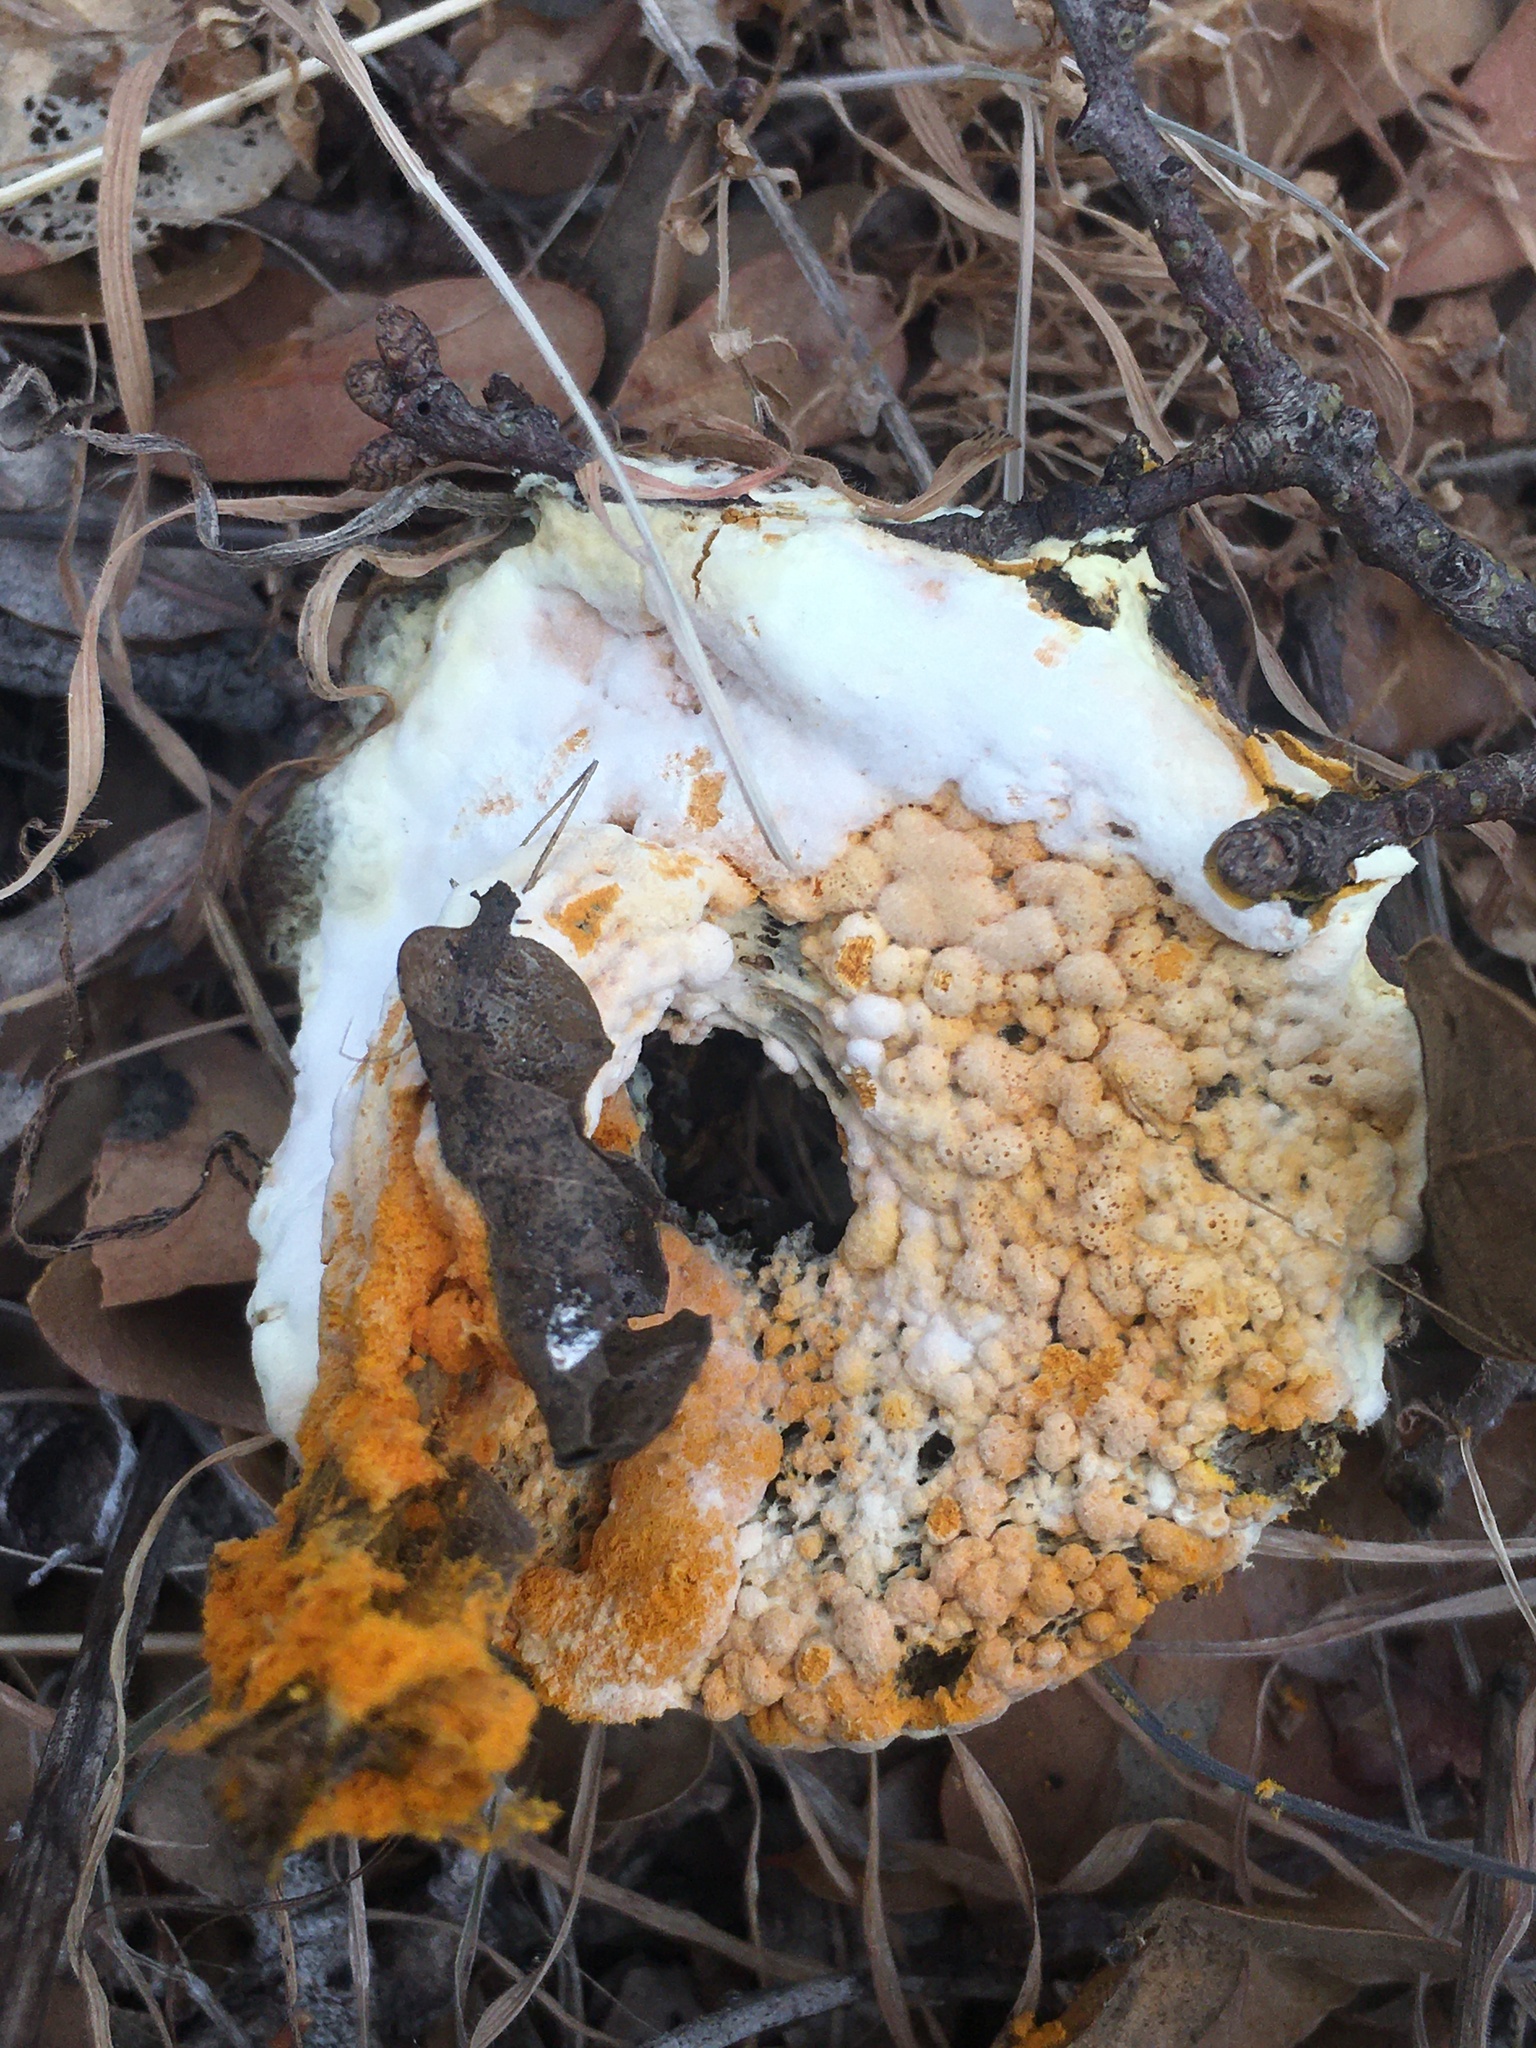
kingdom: Fungi
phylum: Ascomycota
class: Sordariomycetes
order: Hypocreales
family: Hypocreaceae
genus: Hypomyces
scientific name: Hypomyces microspermus
